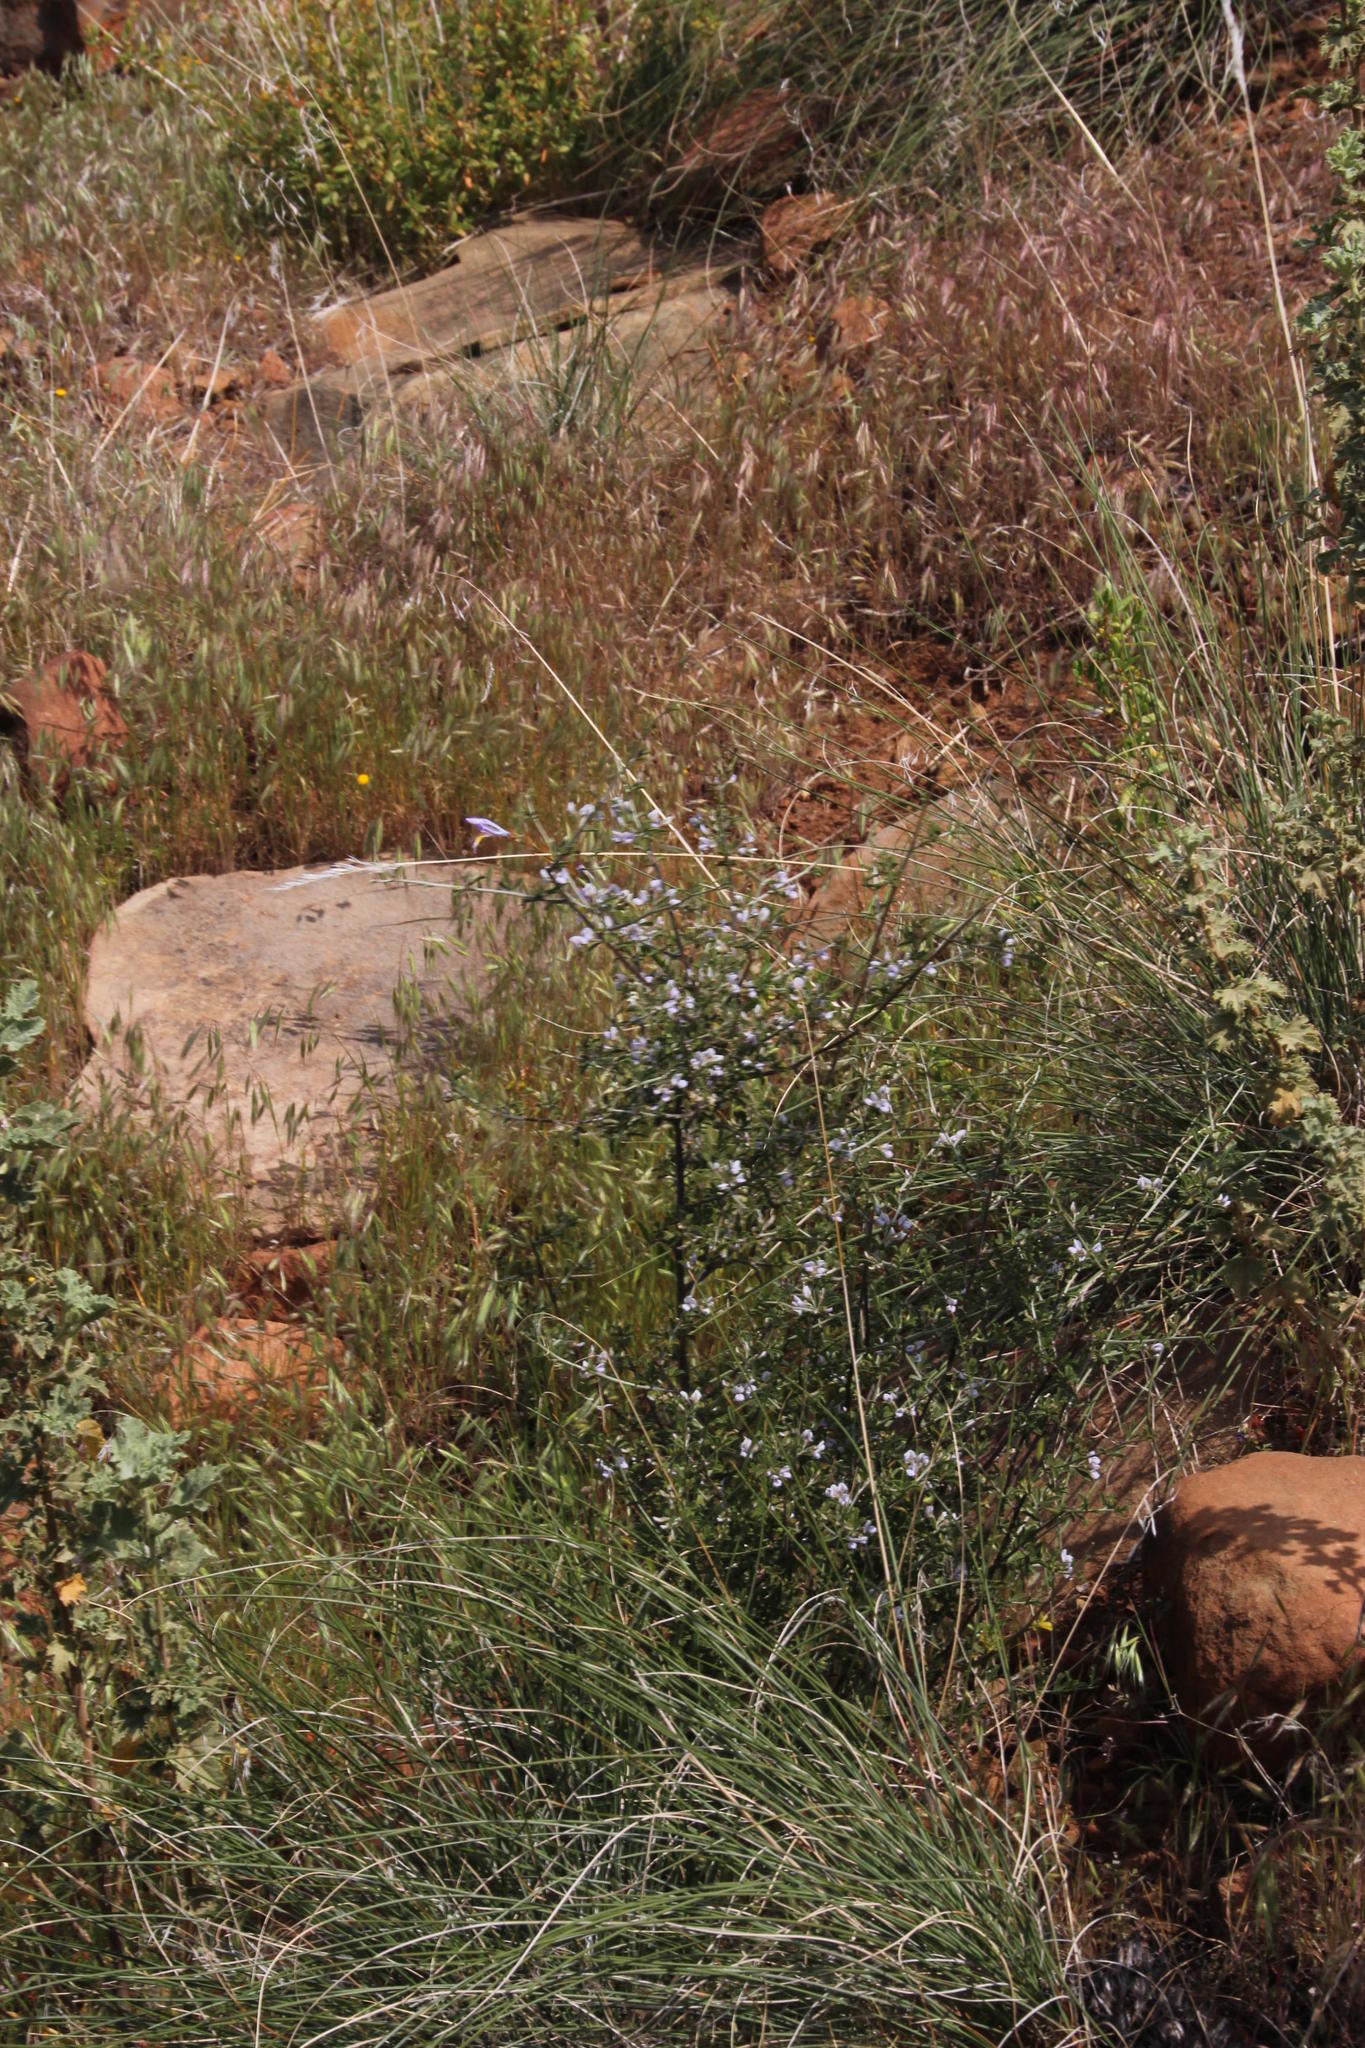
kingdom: Plantae
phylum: Tracheophyta
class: Magnoliopsida
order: Fabales
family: Fabaceae
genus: Psoralea
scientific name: Psoralea spissa
